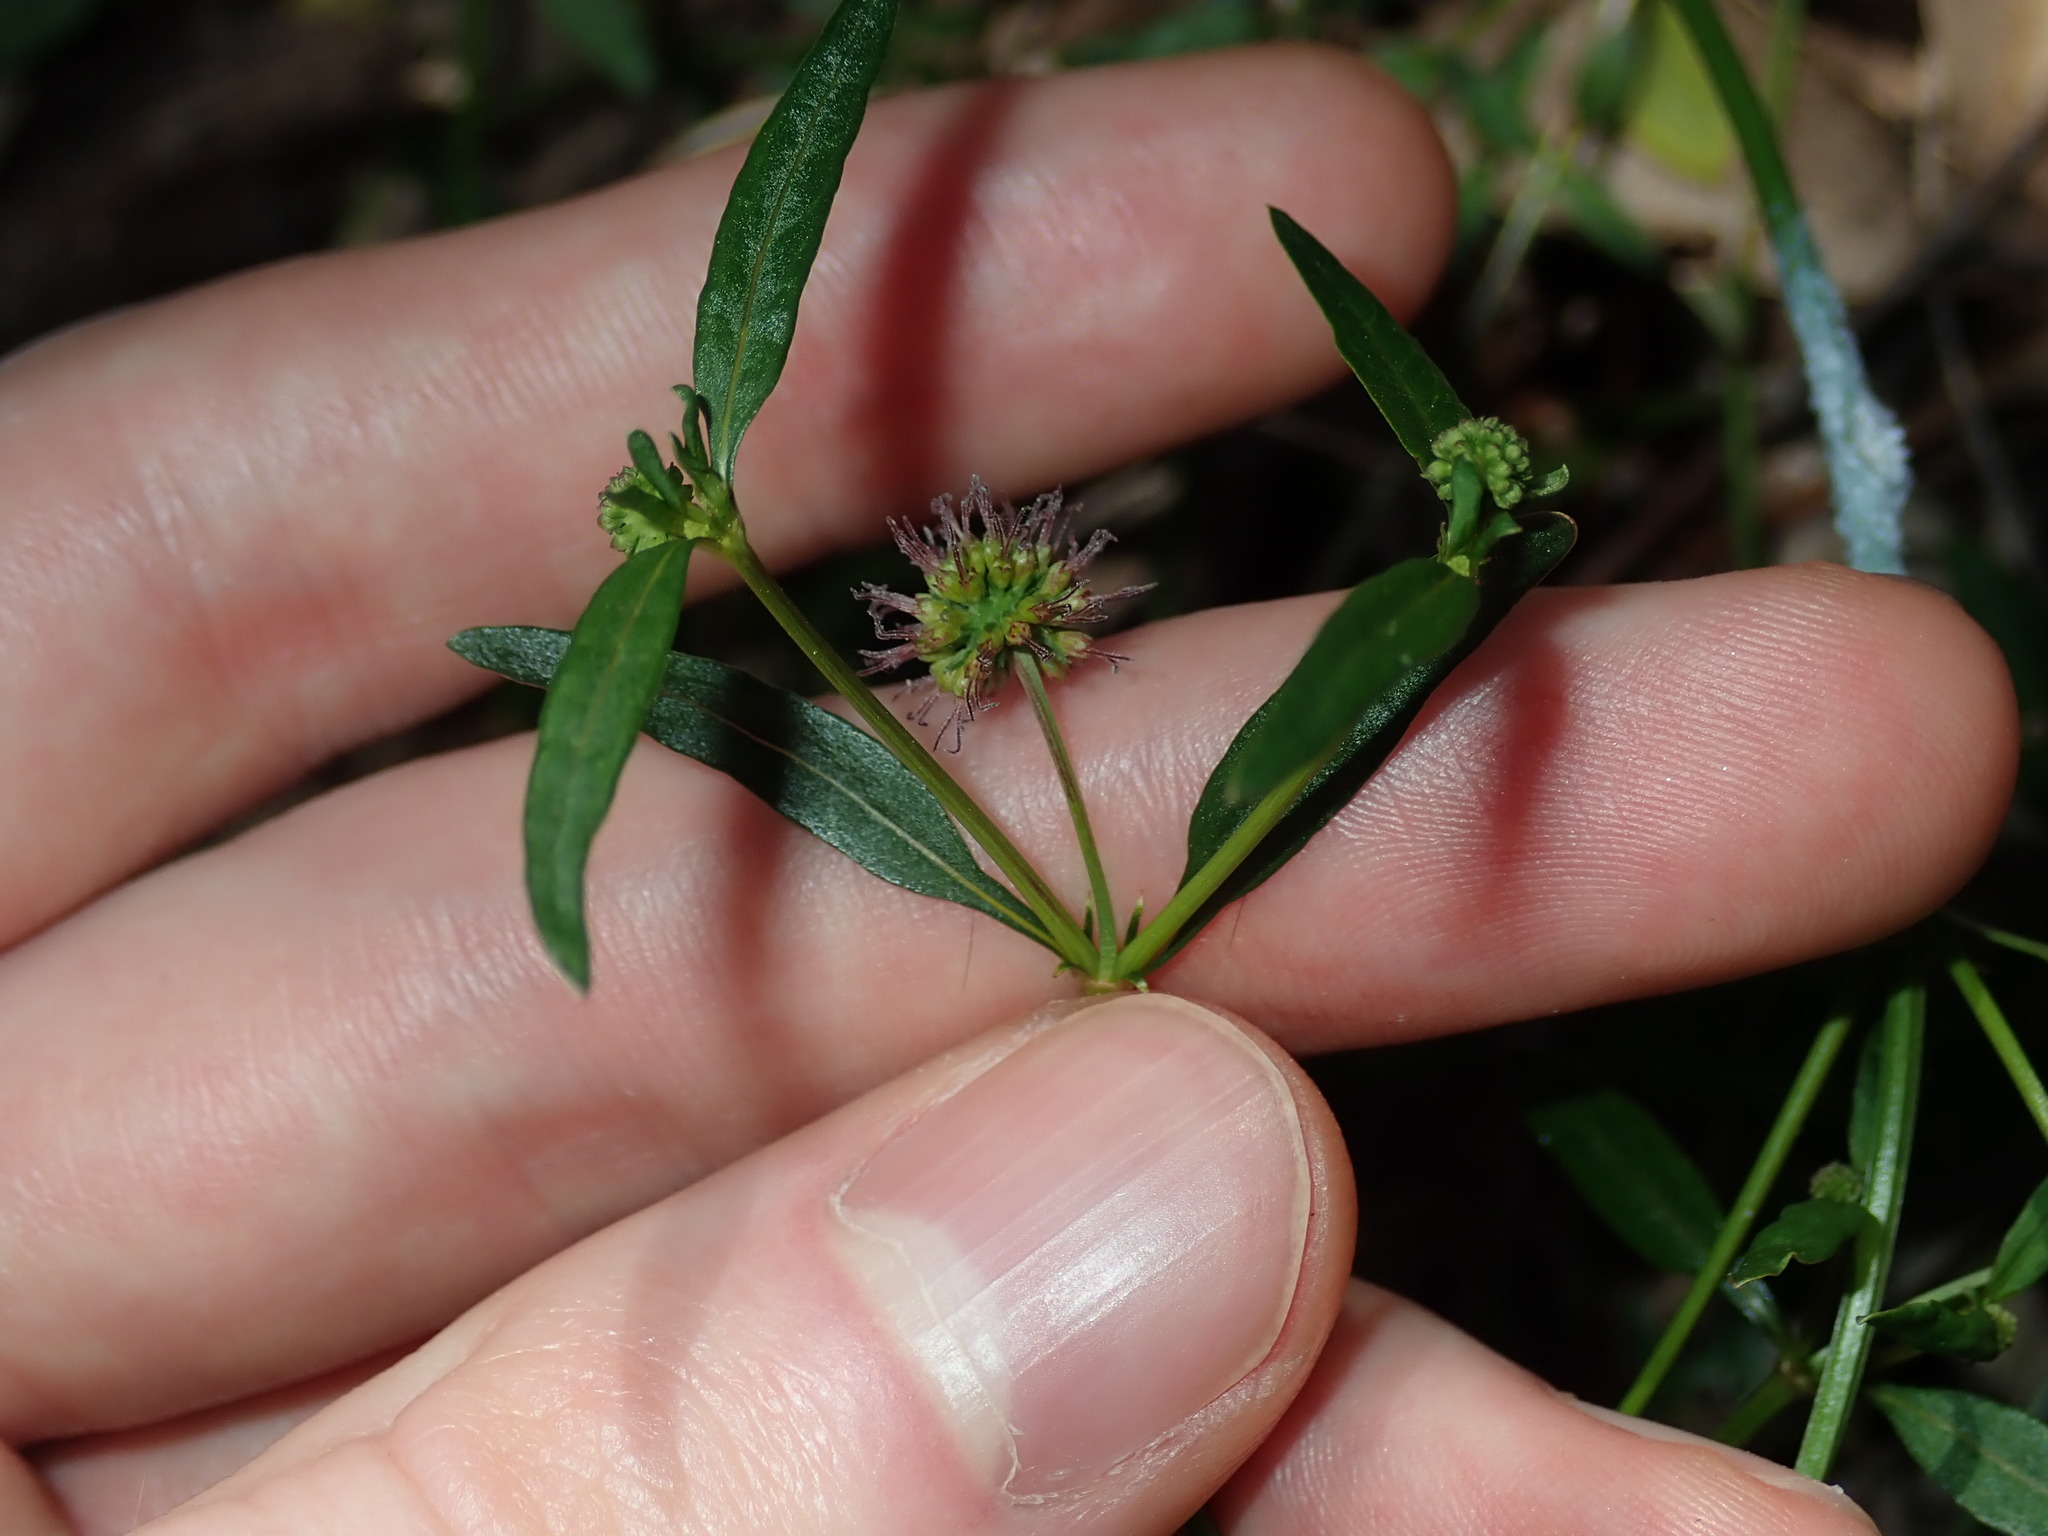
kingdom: Plantae
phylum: Tracheophyta
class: Magnoliopsida
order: Gentianales
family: Rubiaceae
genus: Opercularia
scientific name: Opercularia diphylla
